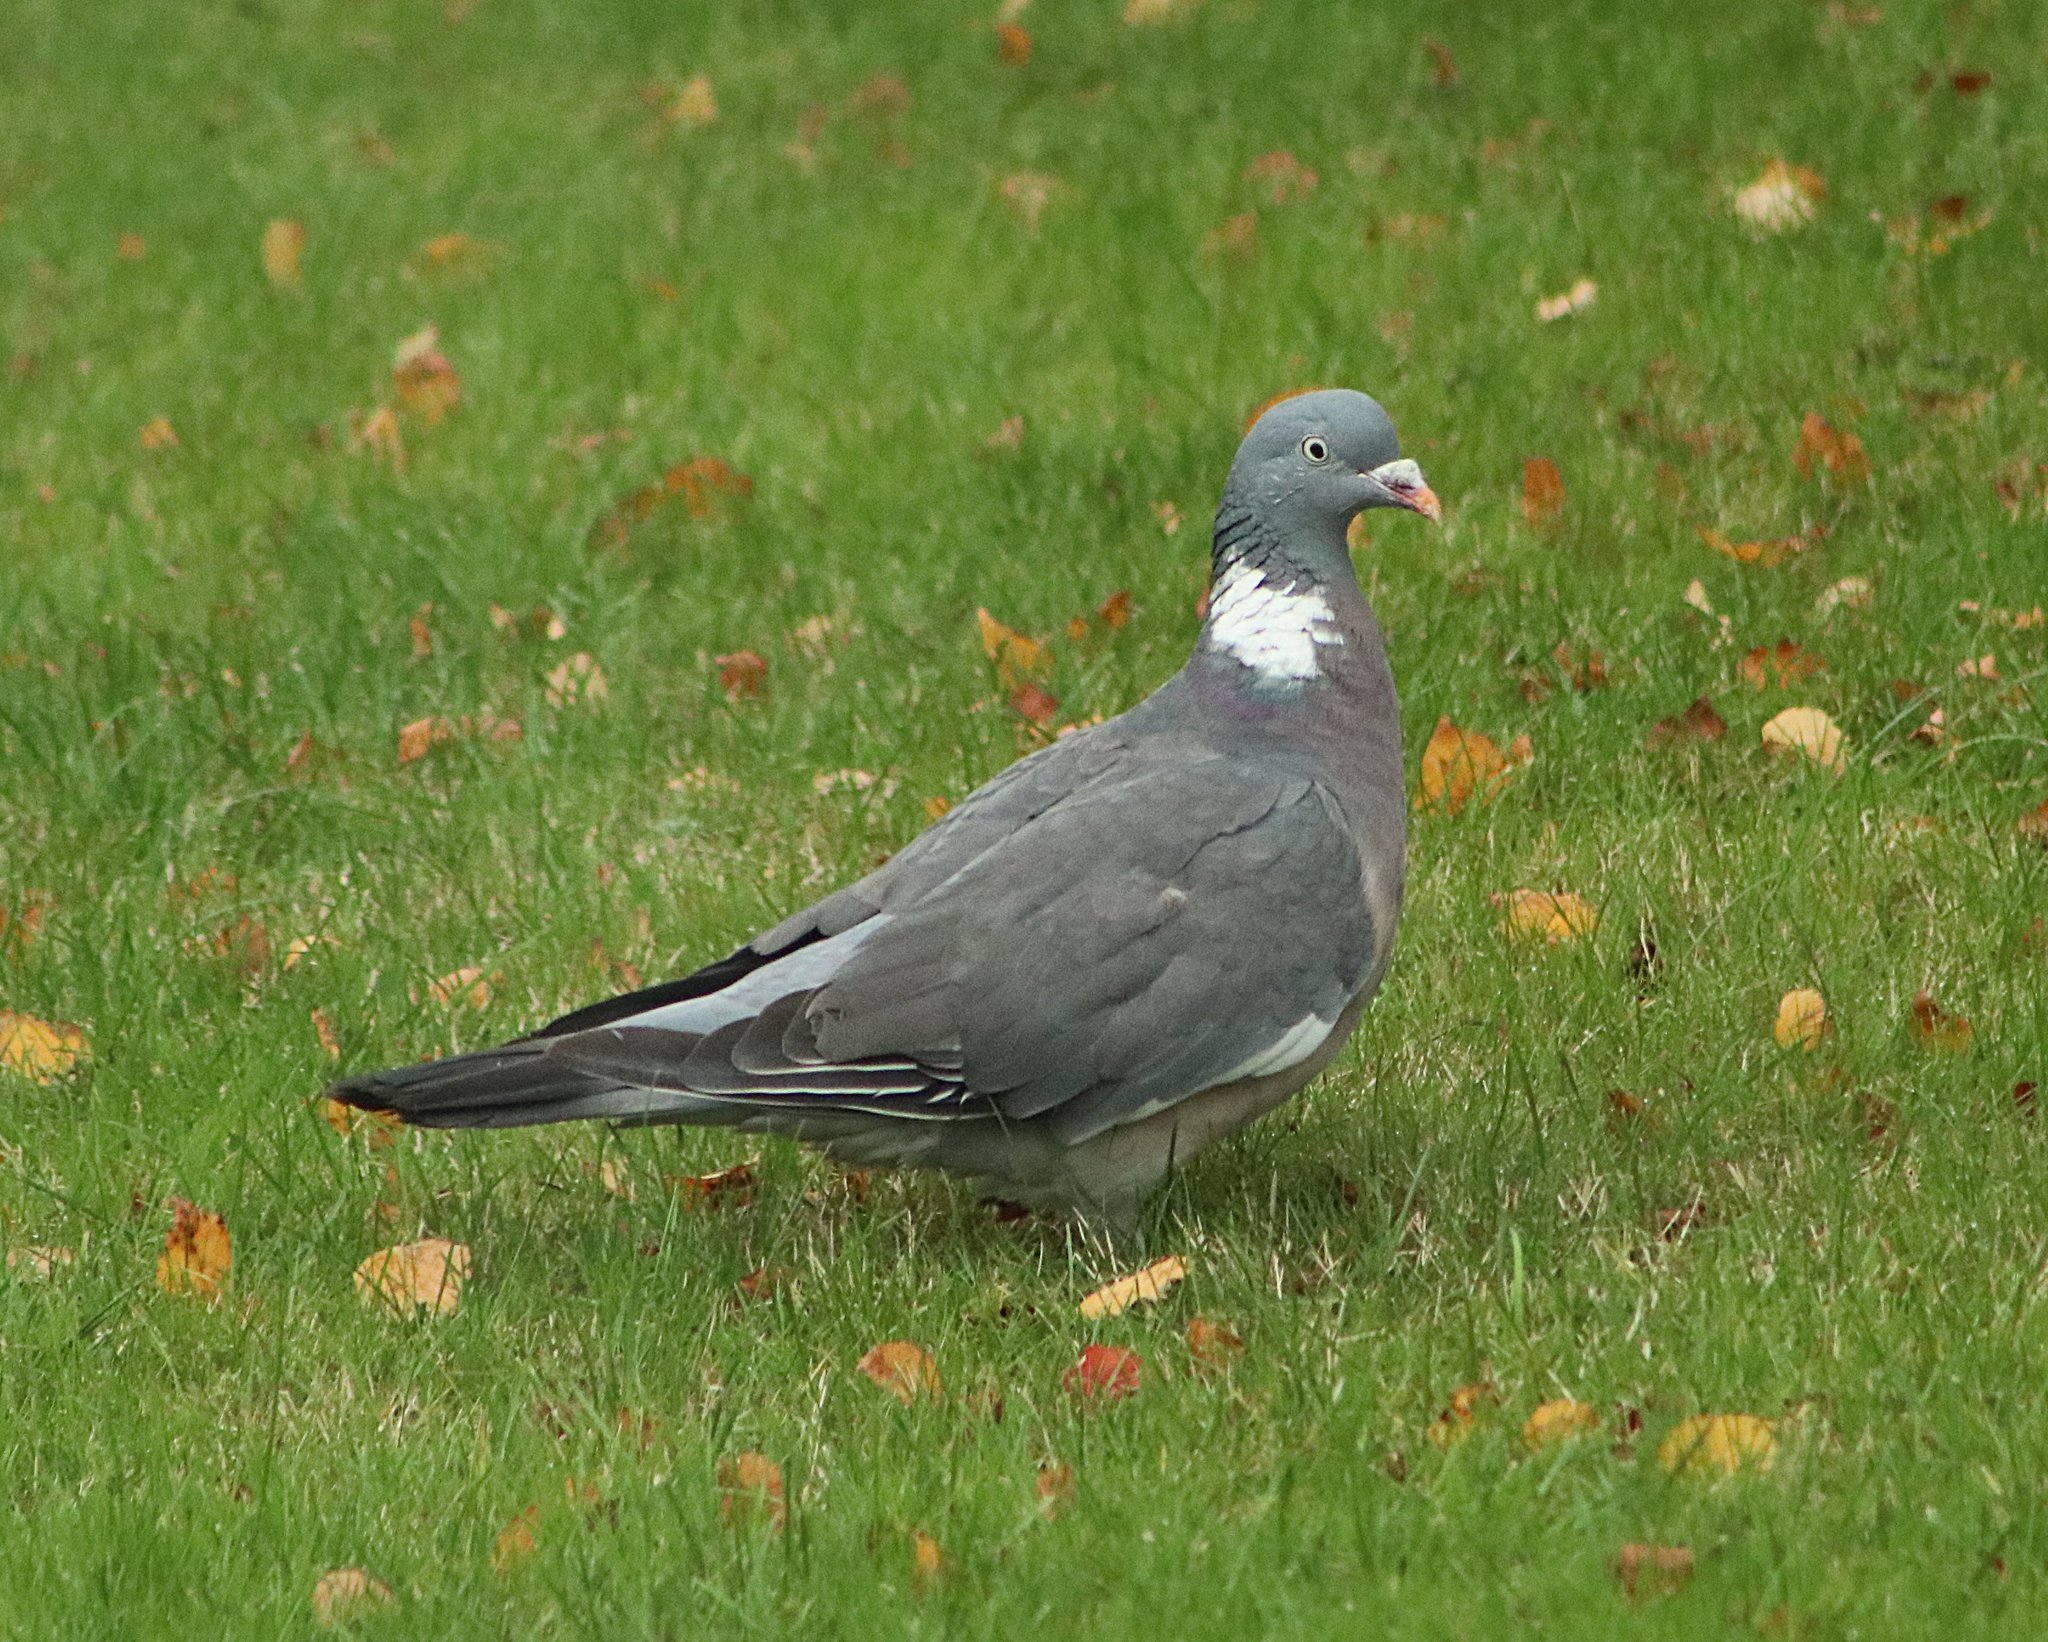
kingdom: Animalia
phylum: Chordata
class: Aves
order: Columbiformes
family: Columbidae
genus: Columba
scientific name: Columba palumbus
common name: Common wood pigeon
